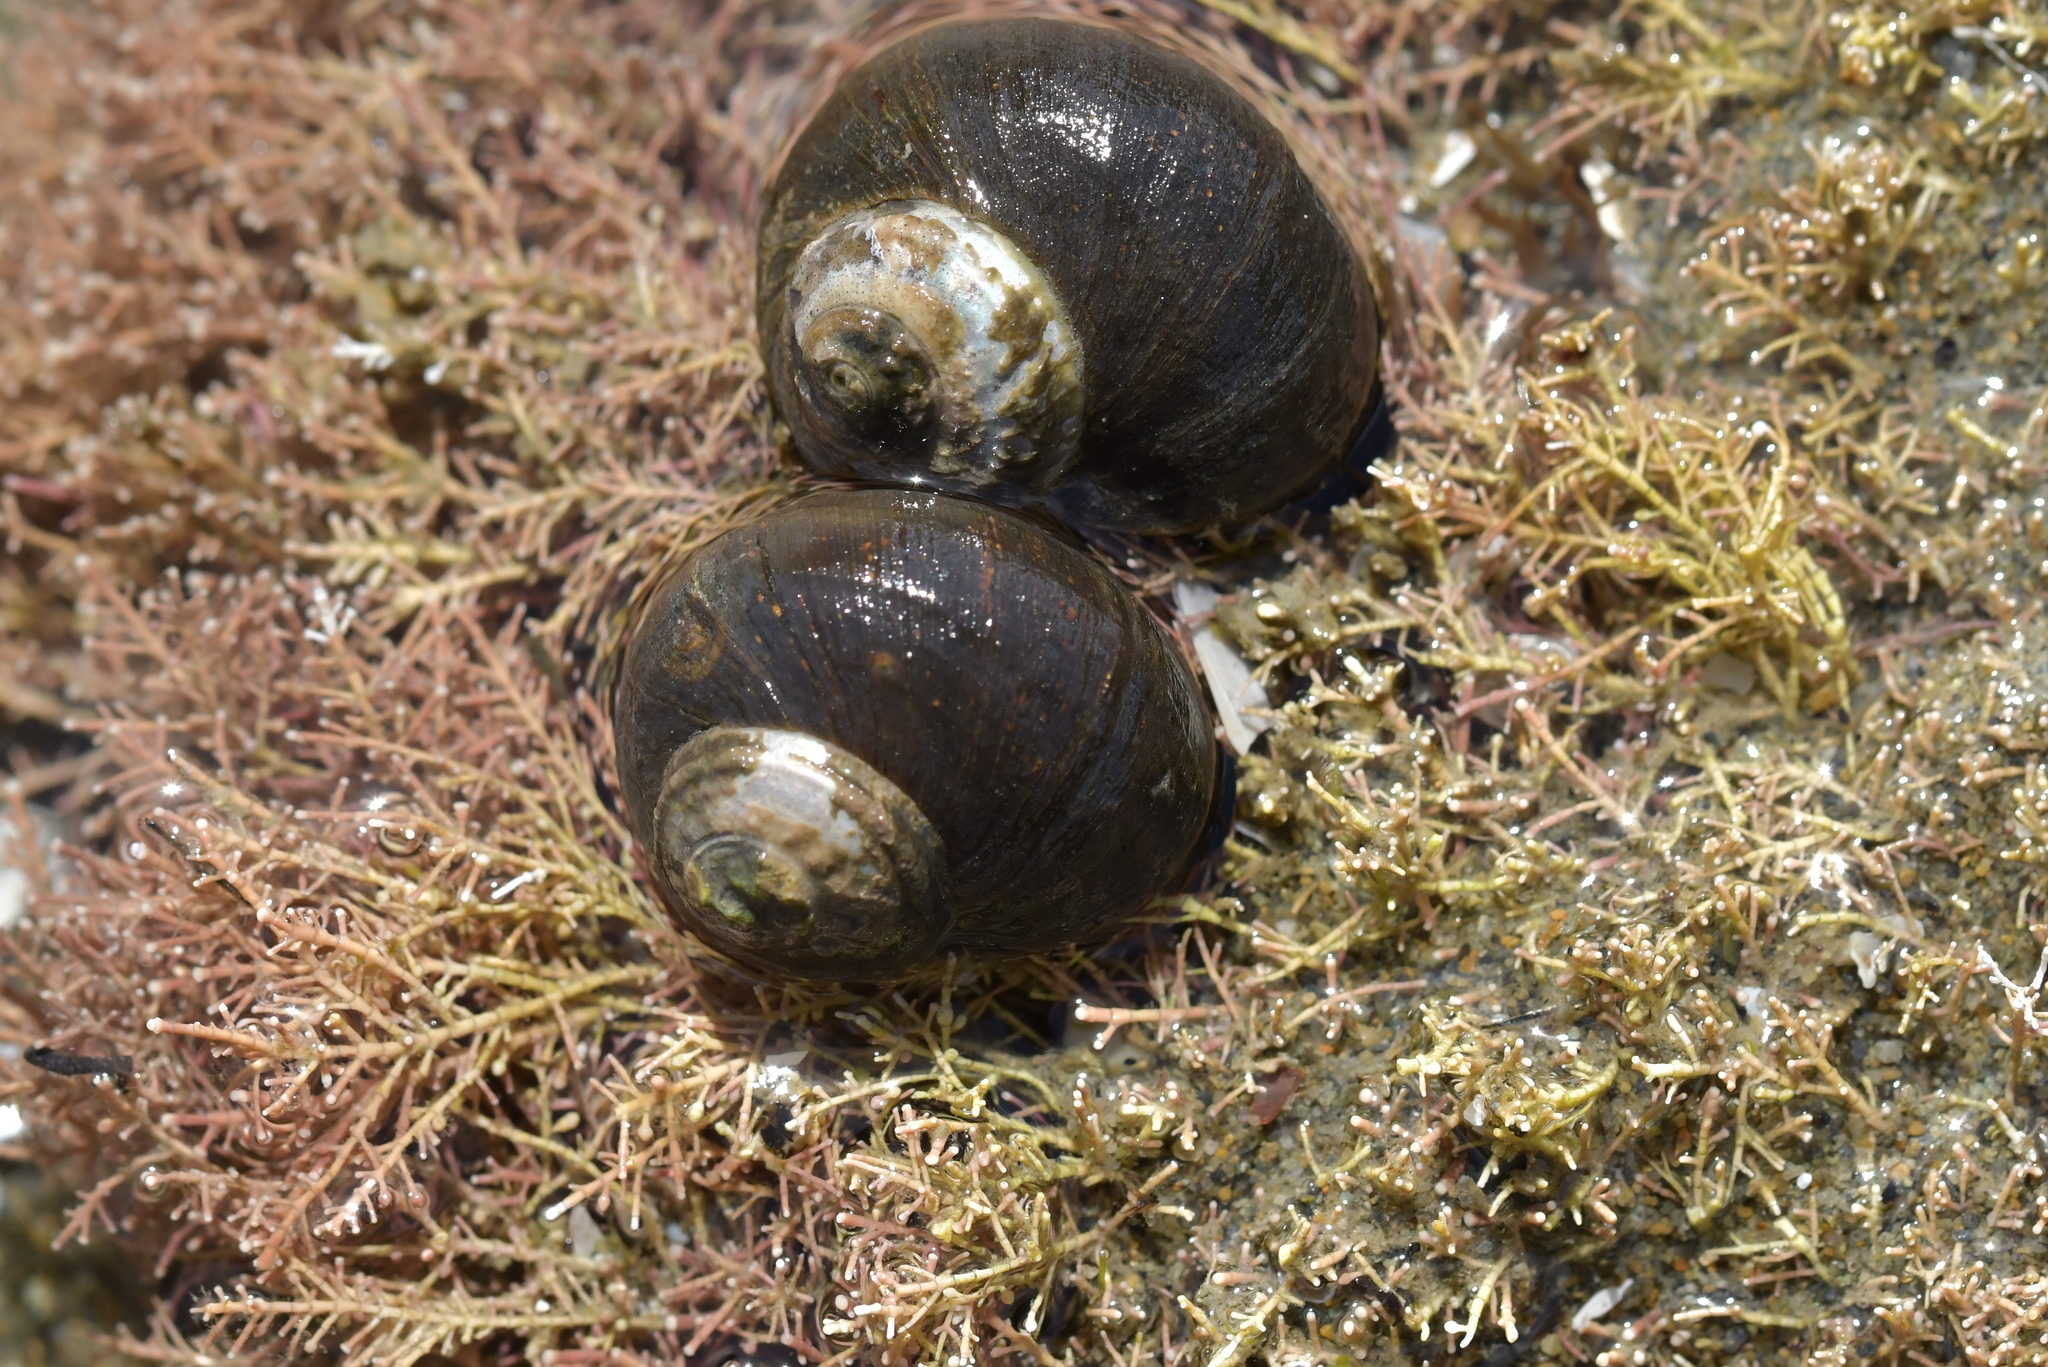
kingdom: Animalia
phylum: Mollusca
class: Gastropoda
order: Trochida
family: Turbinidae
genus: Lunella
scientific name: Lunella smaragda
